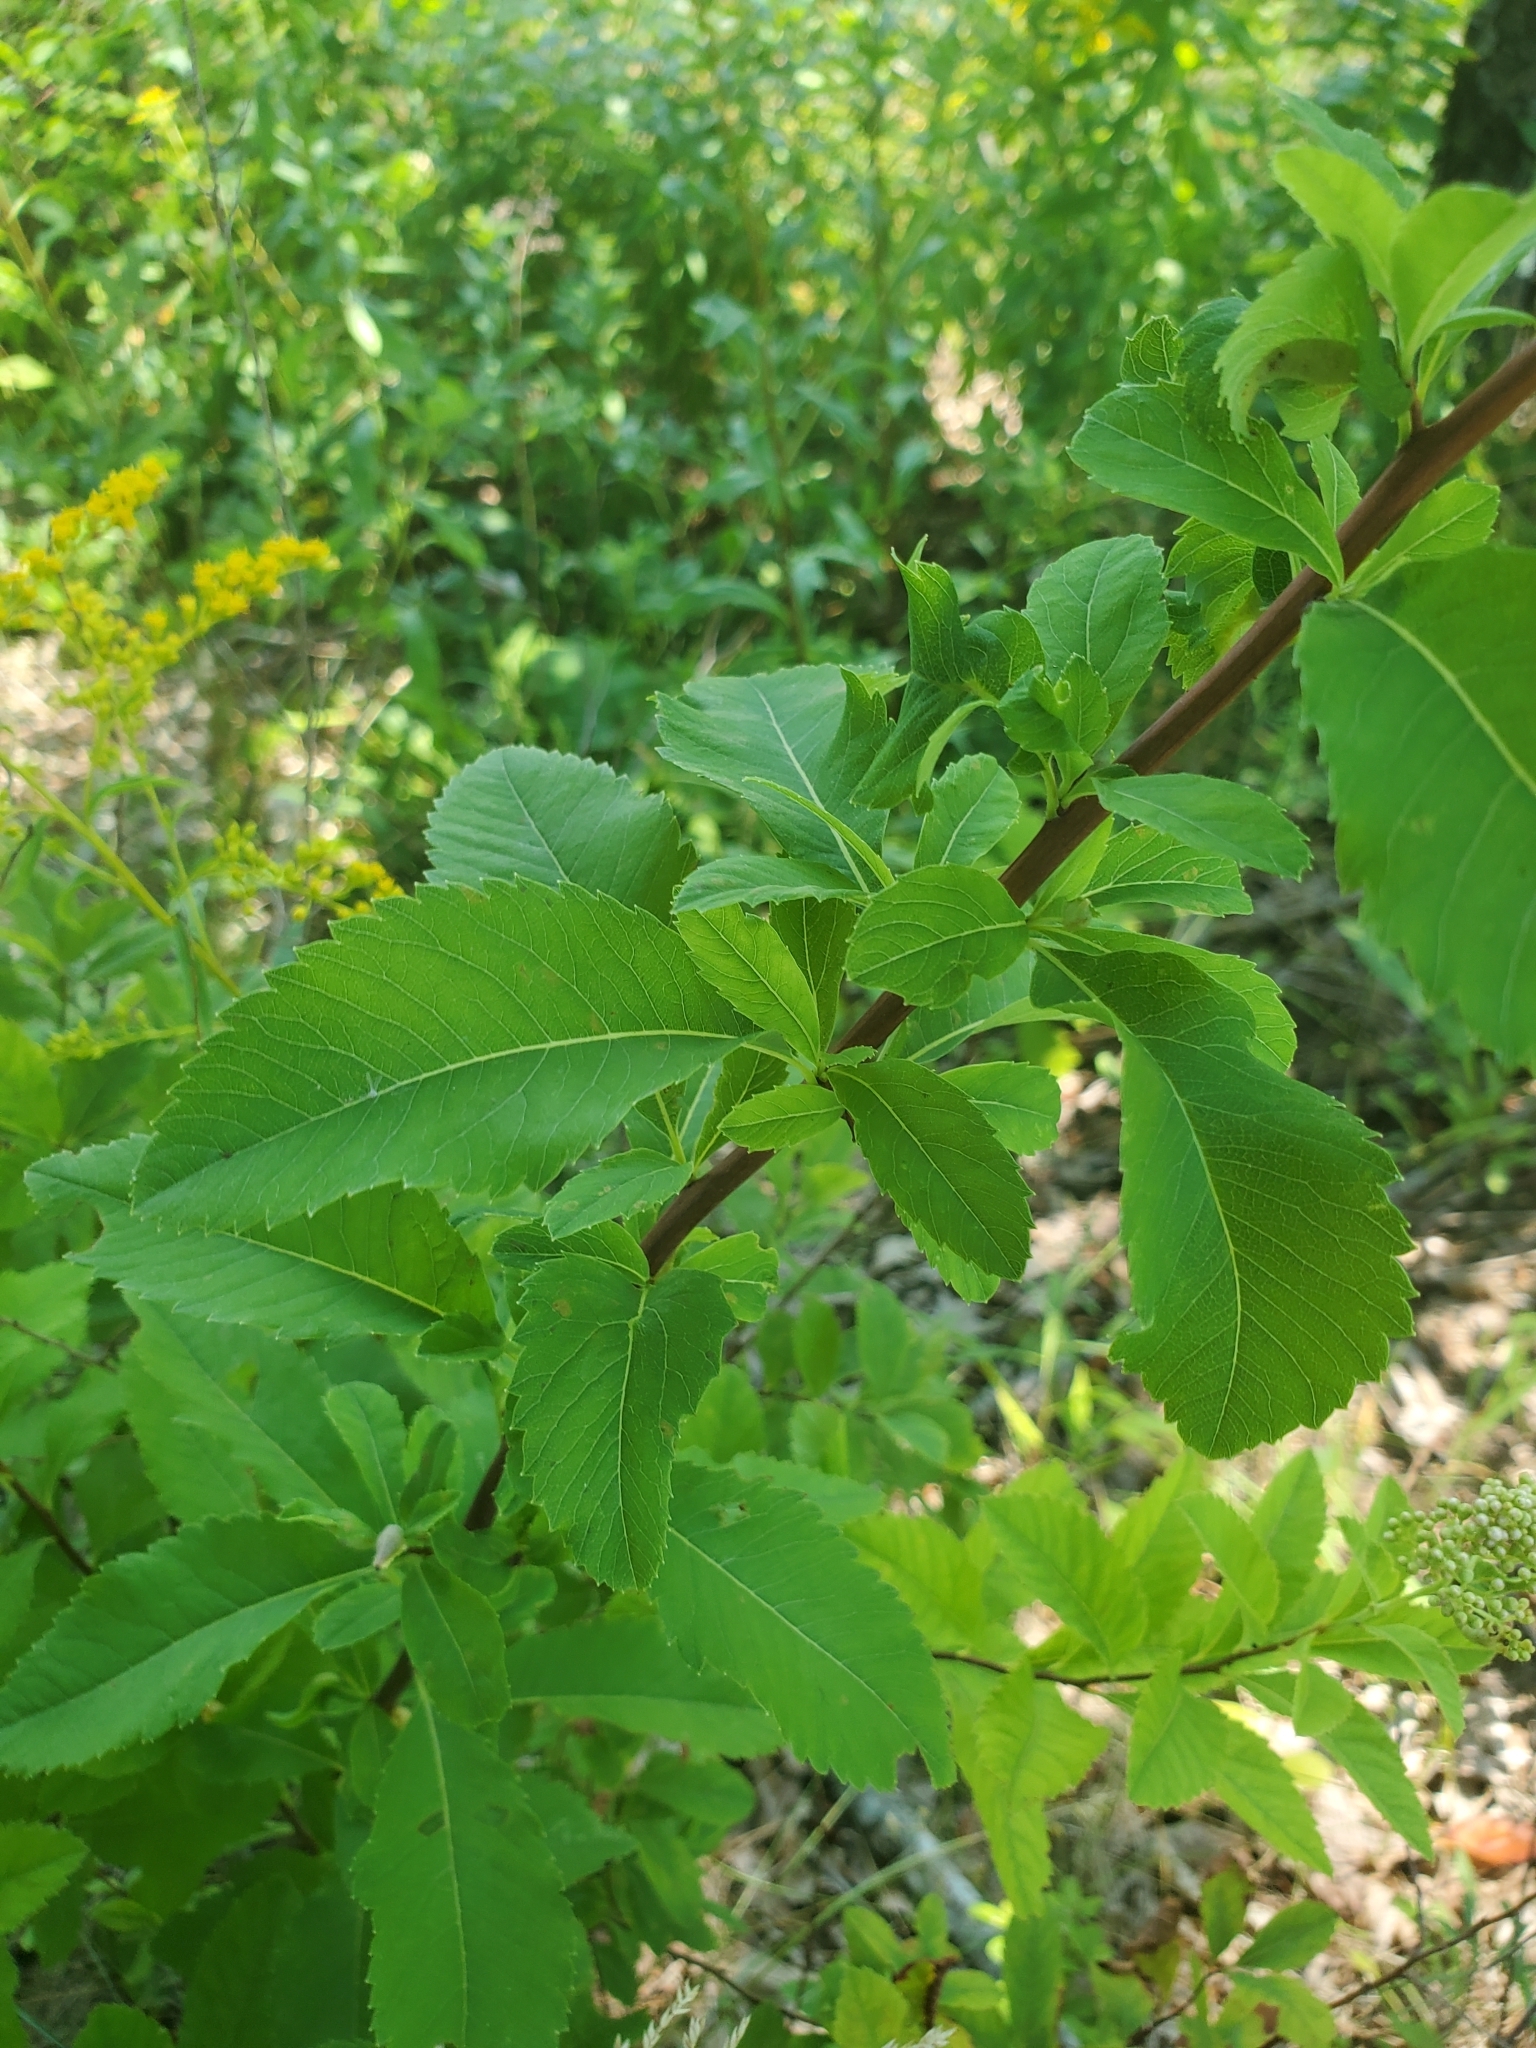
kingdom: Plantae
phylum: Tracheophyta
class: Magnoliopsida
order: Rosales
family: Rosaceae
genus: Spiraea
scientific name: Spiraea alba
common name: Pale bridewort
